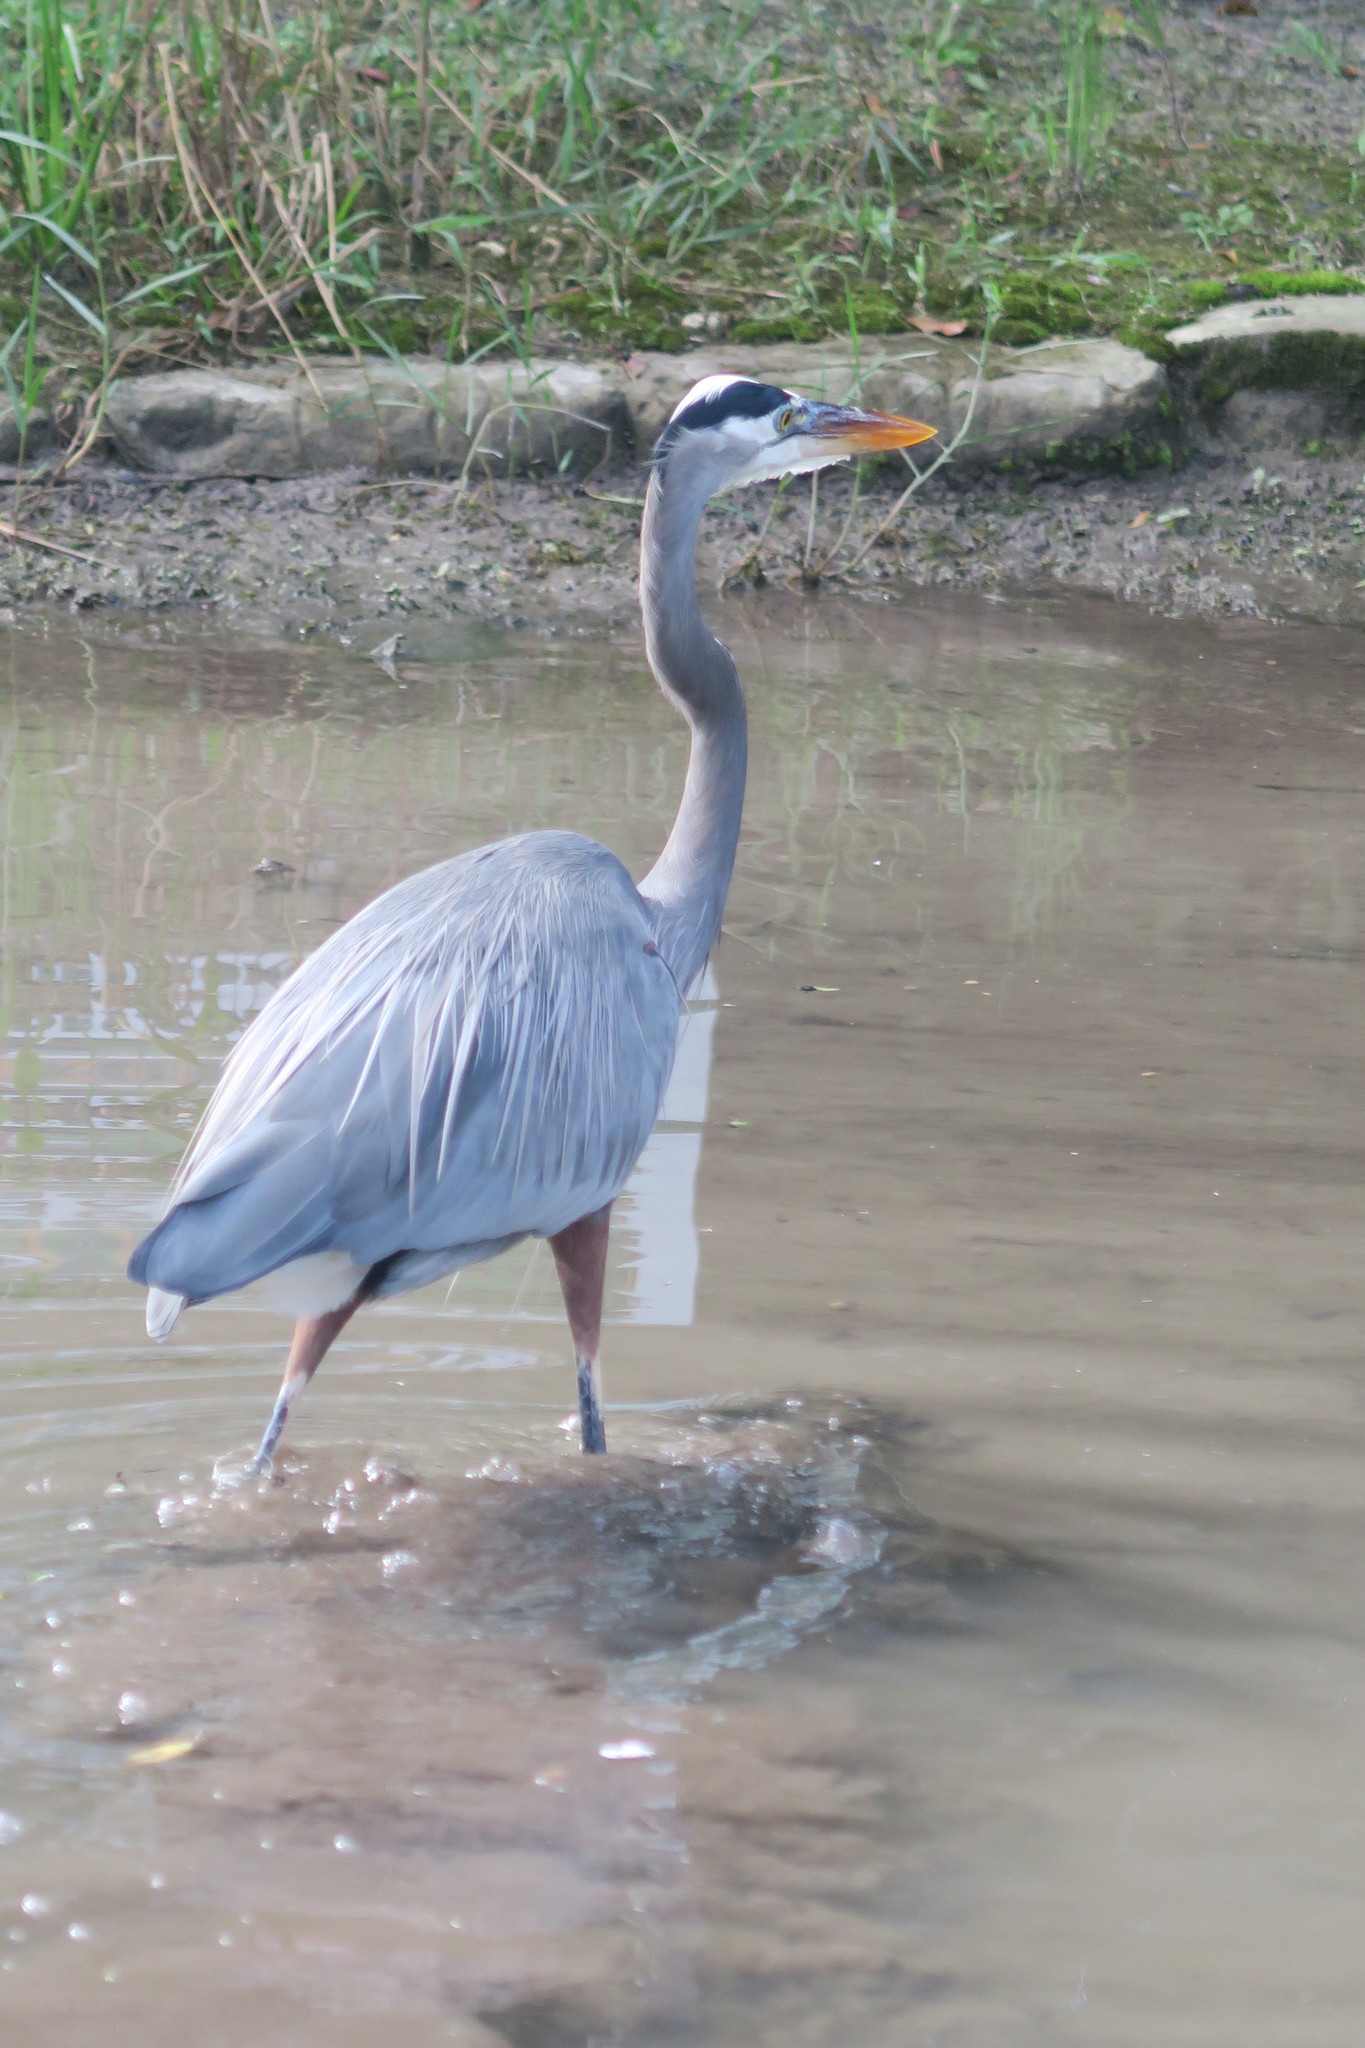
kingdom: Animalia
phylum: Chordata
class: Aves
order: Pelecaniformes
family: Ardeidae
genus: Ardea
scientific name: Ardea herodias
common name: Great blue heron
